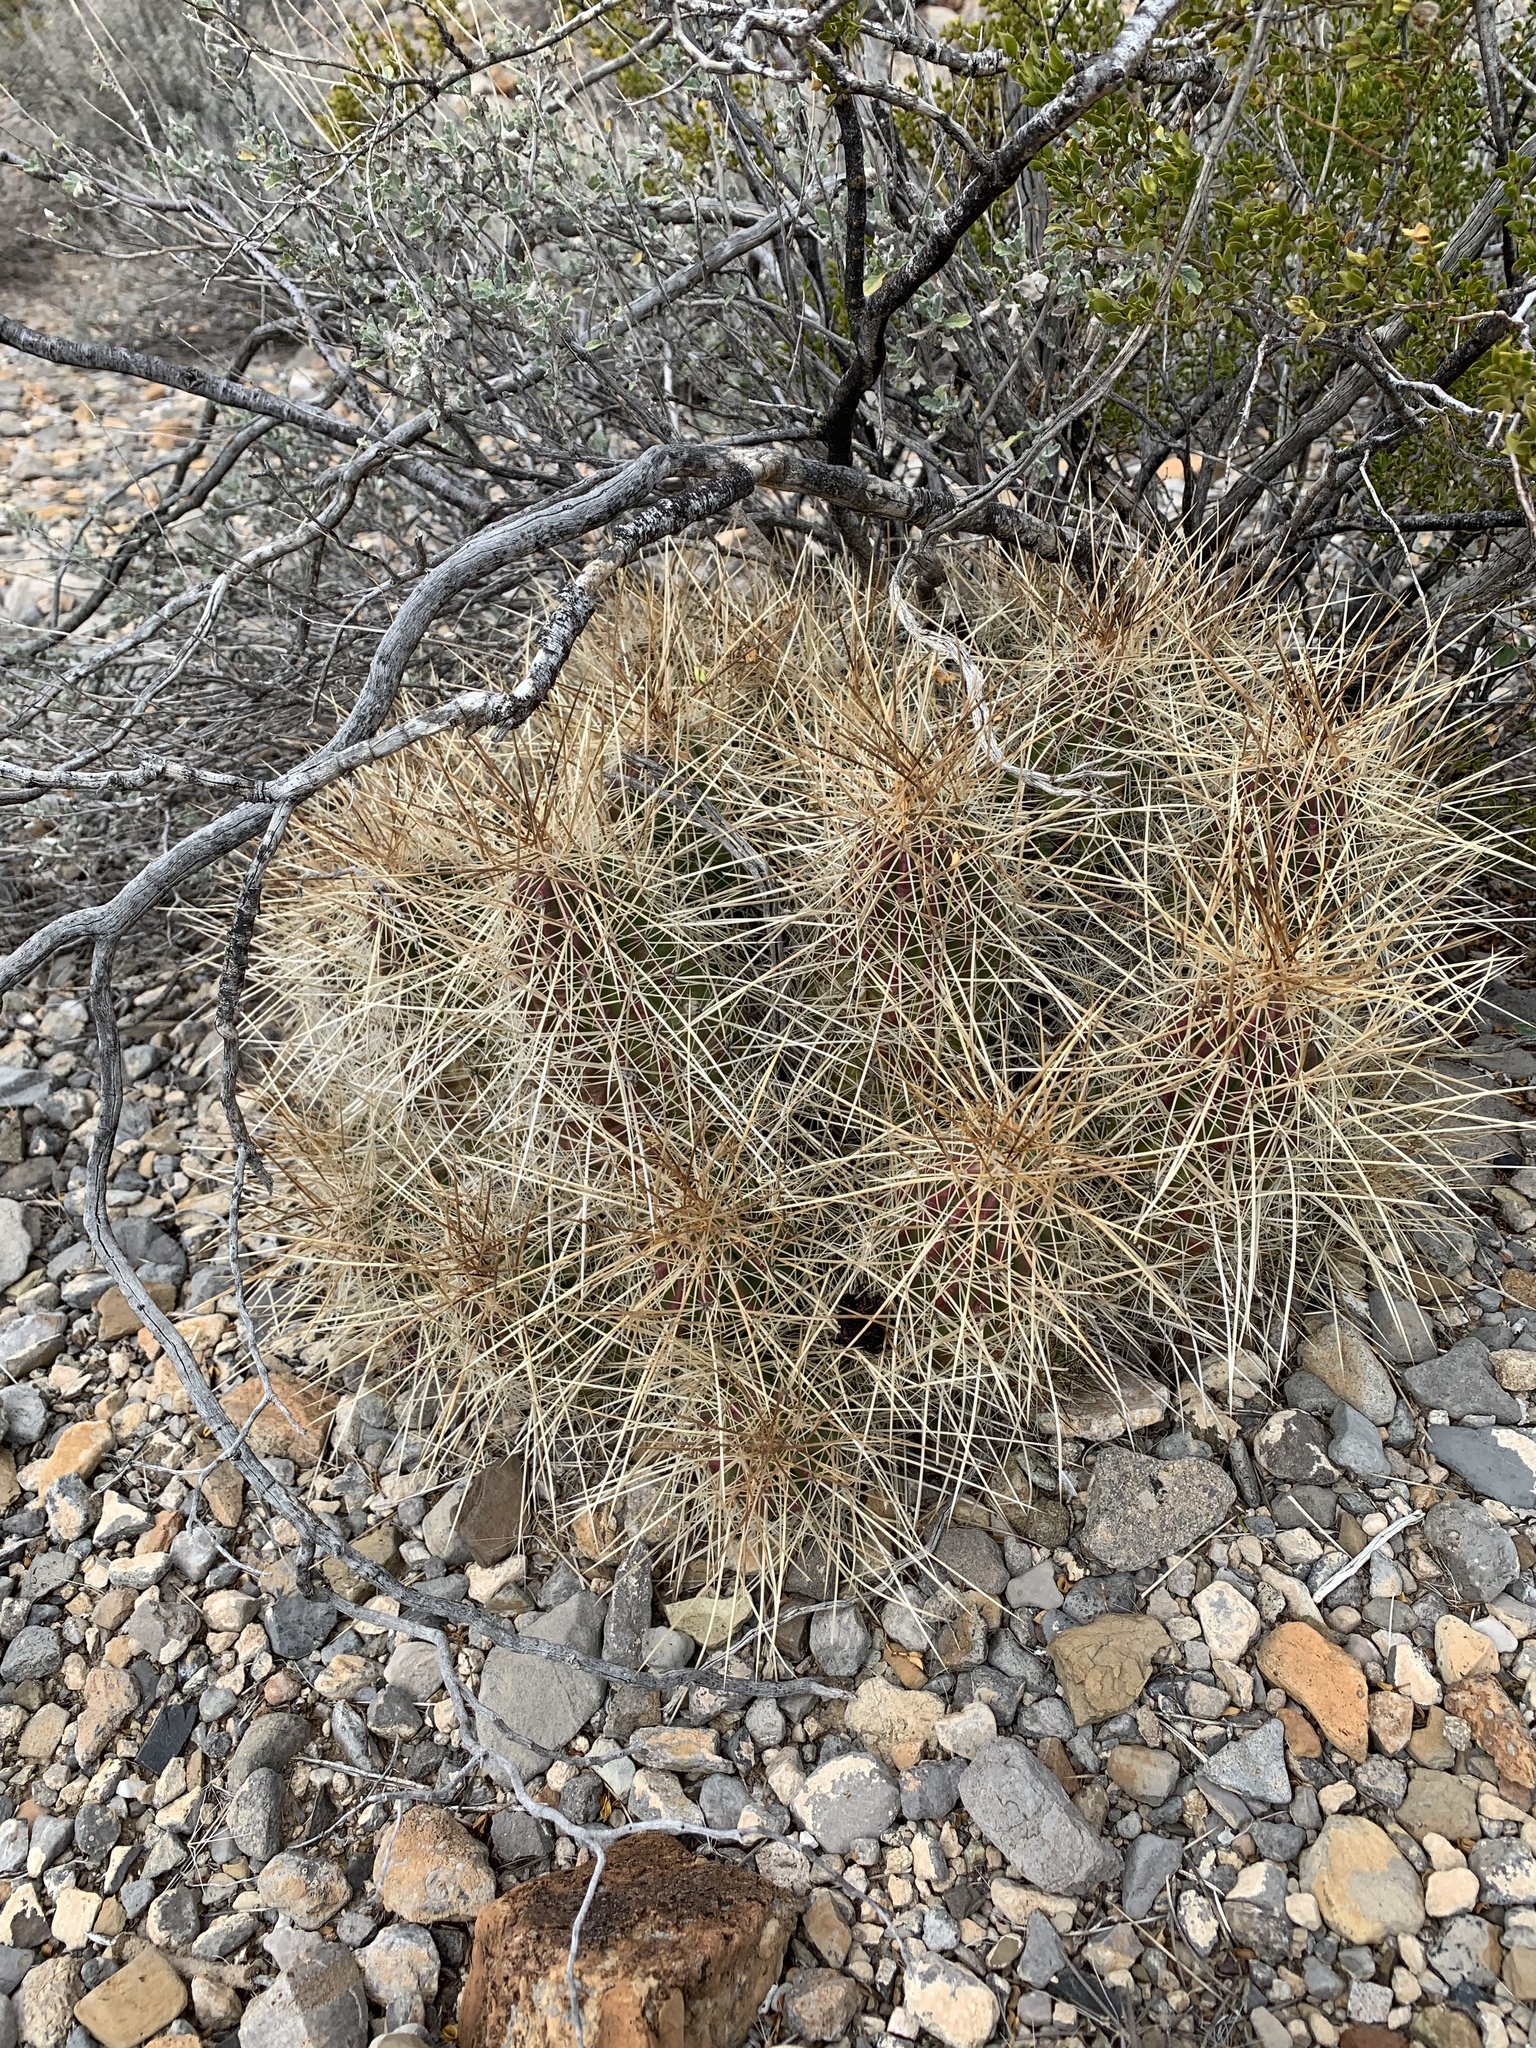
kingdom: Plantae
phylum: Tracheophyta
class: Magnoliopsida
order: Caryophyllales
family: Cactaceae
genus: Echinocereus
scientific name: Echinocereus stramineus
